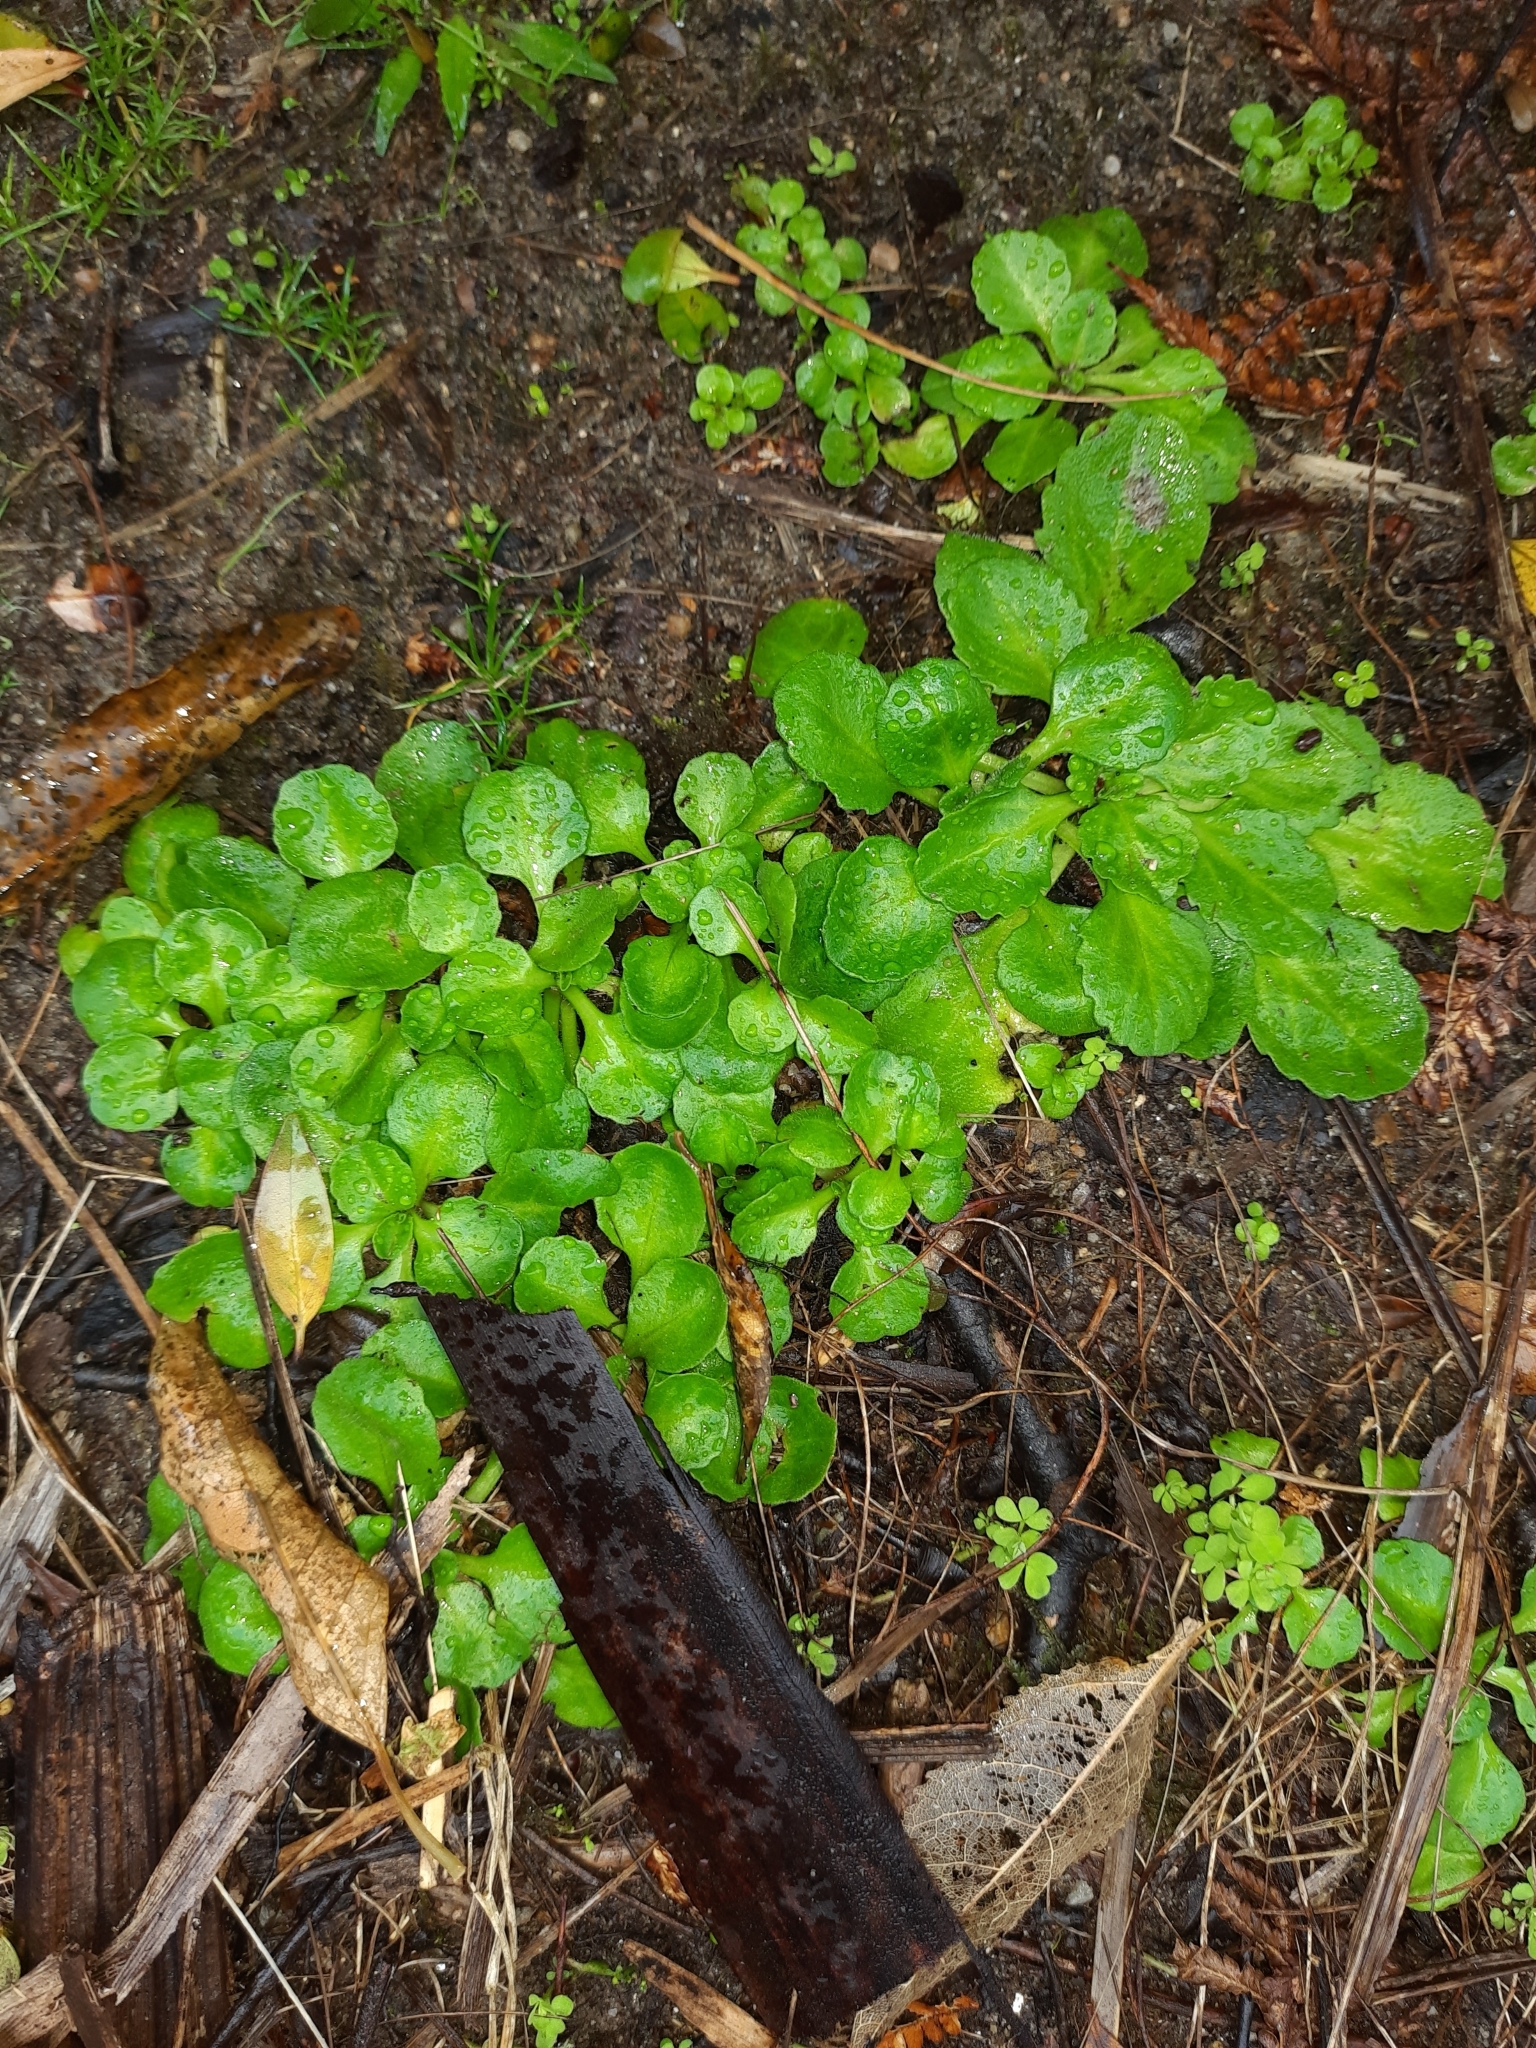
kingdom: Plantae
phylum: Tracheophyta
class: Magnoliopsida
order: Asterales
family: Asteraceae
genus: Bellis
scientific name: Bellis perennis
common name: Lawndaisy
